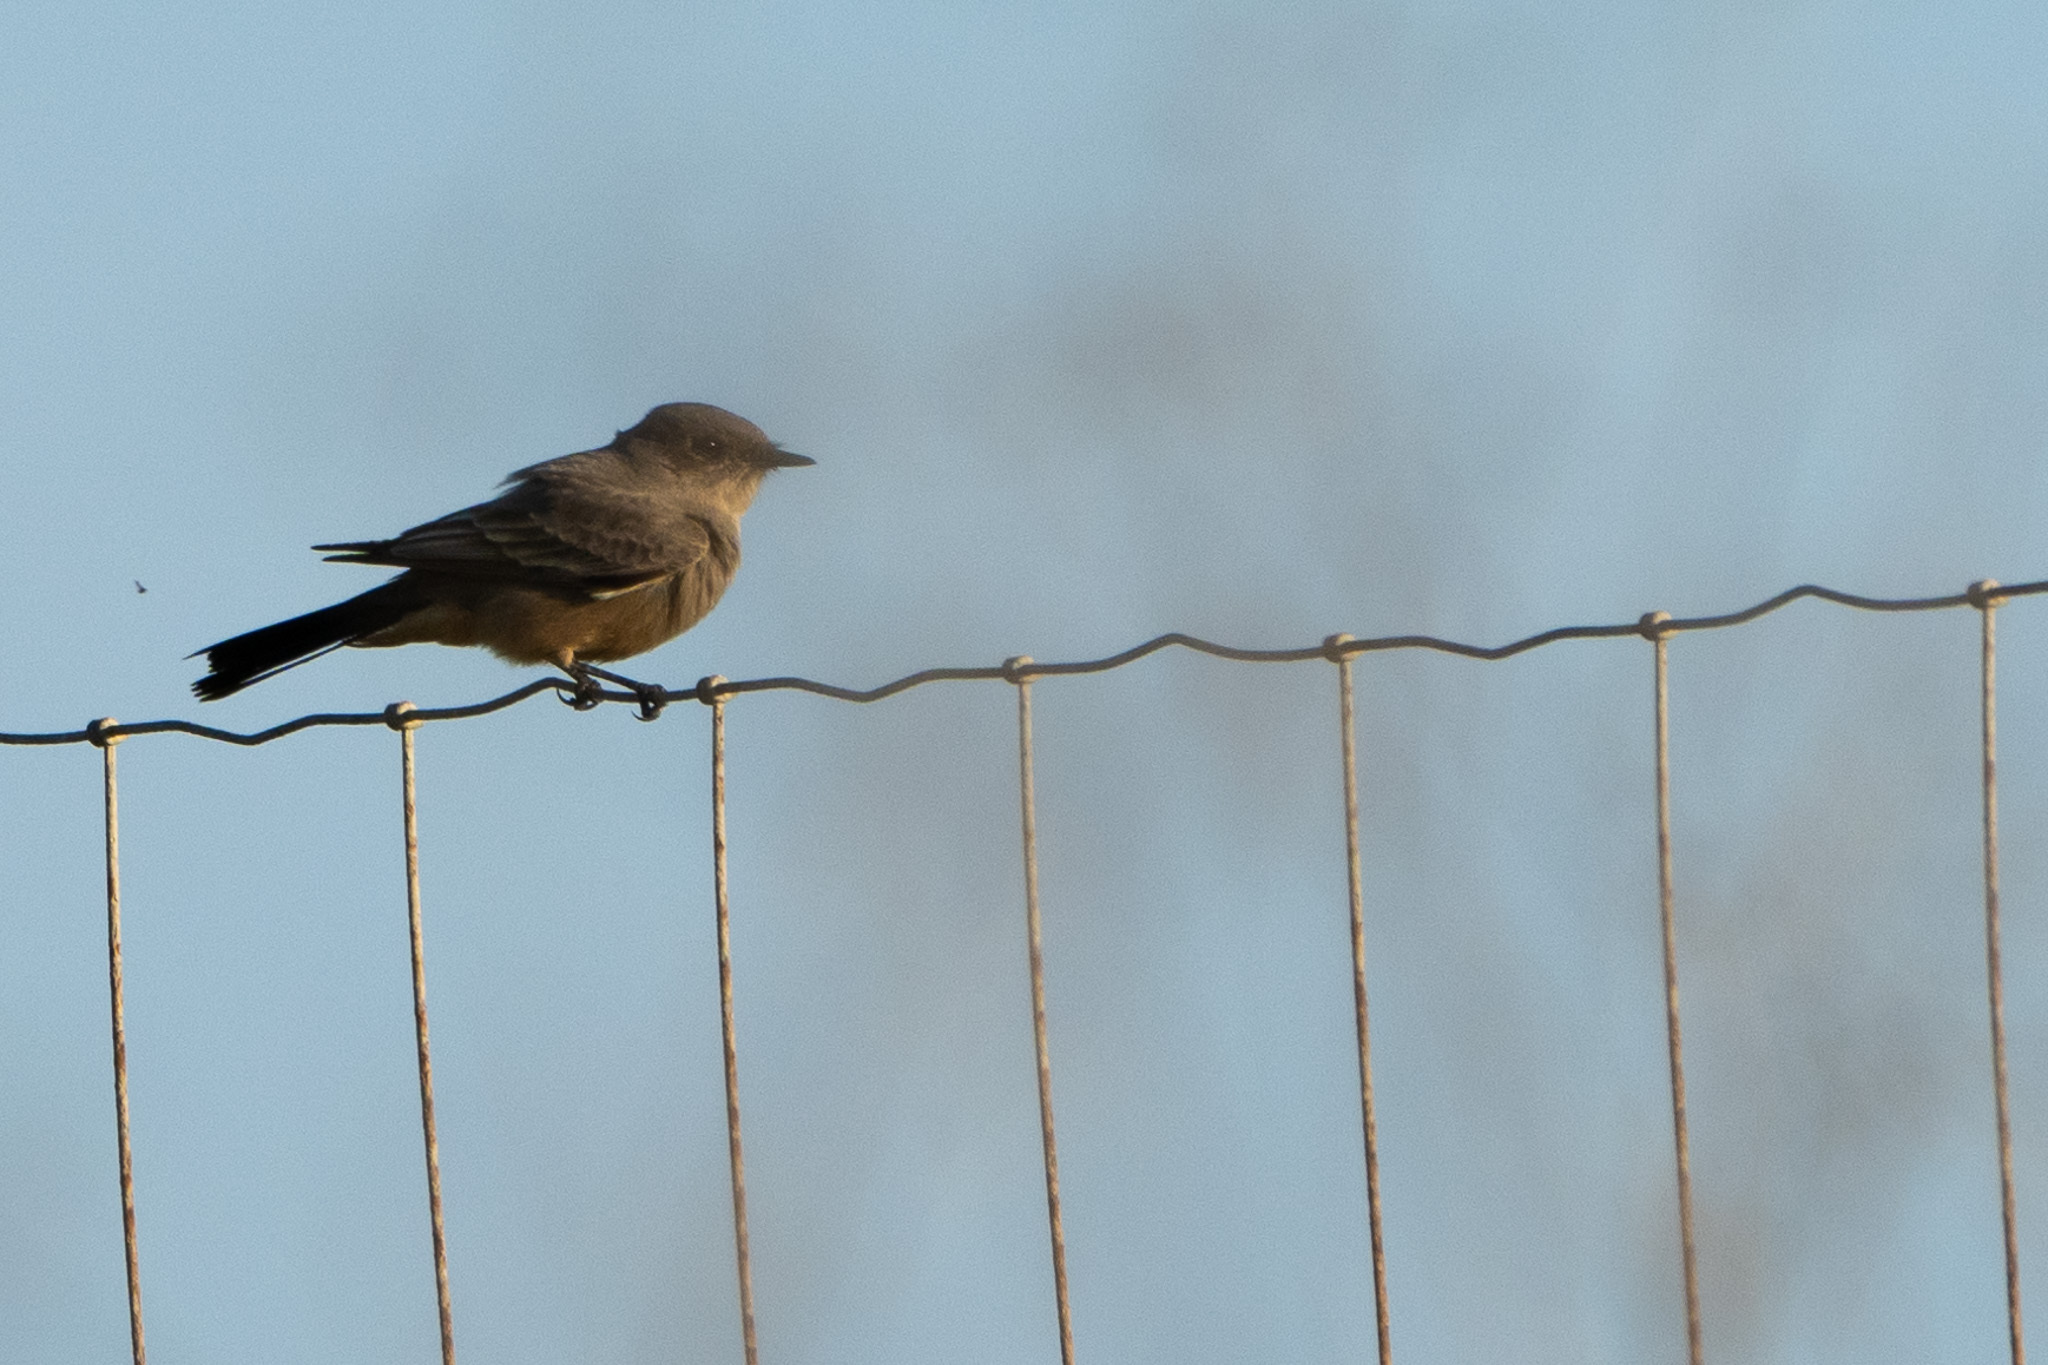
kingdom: Animalia
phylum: Chordata
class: Aves
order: Passeriformes
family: Tyrannidae
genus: Sayornis
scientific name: Sayornis saya
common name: Say's phoebe
